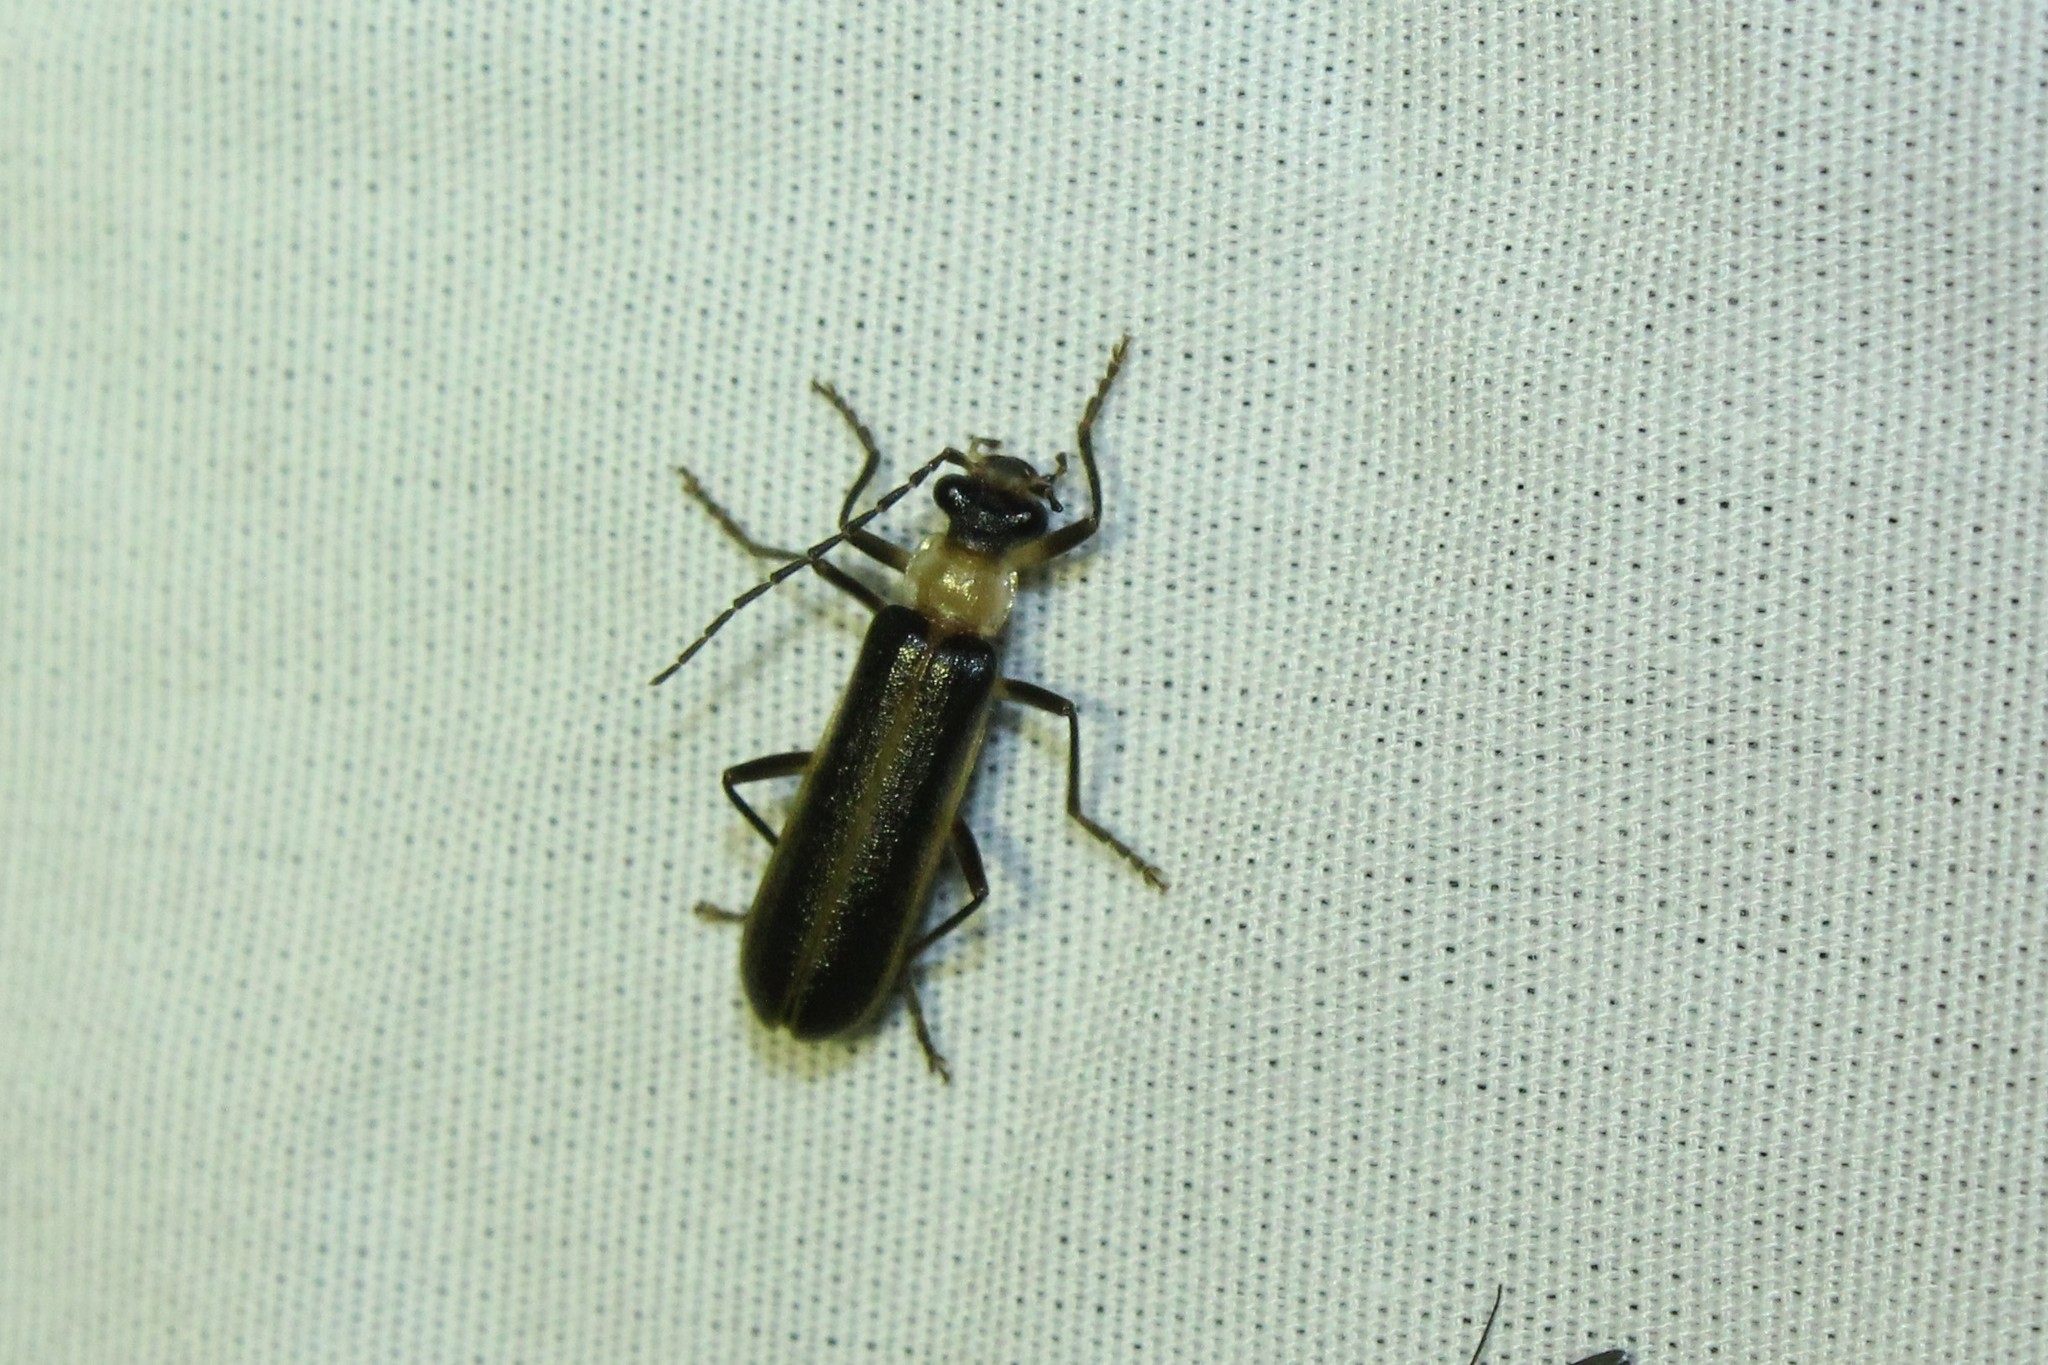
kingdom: Animalia
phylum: Arthropoda
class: Insecta
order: Coleoptera
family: Cantharidae
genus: Podabrus
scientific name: Podabrus flavicollis
